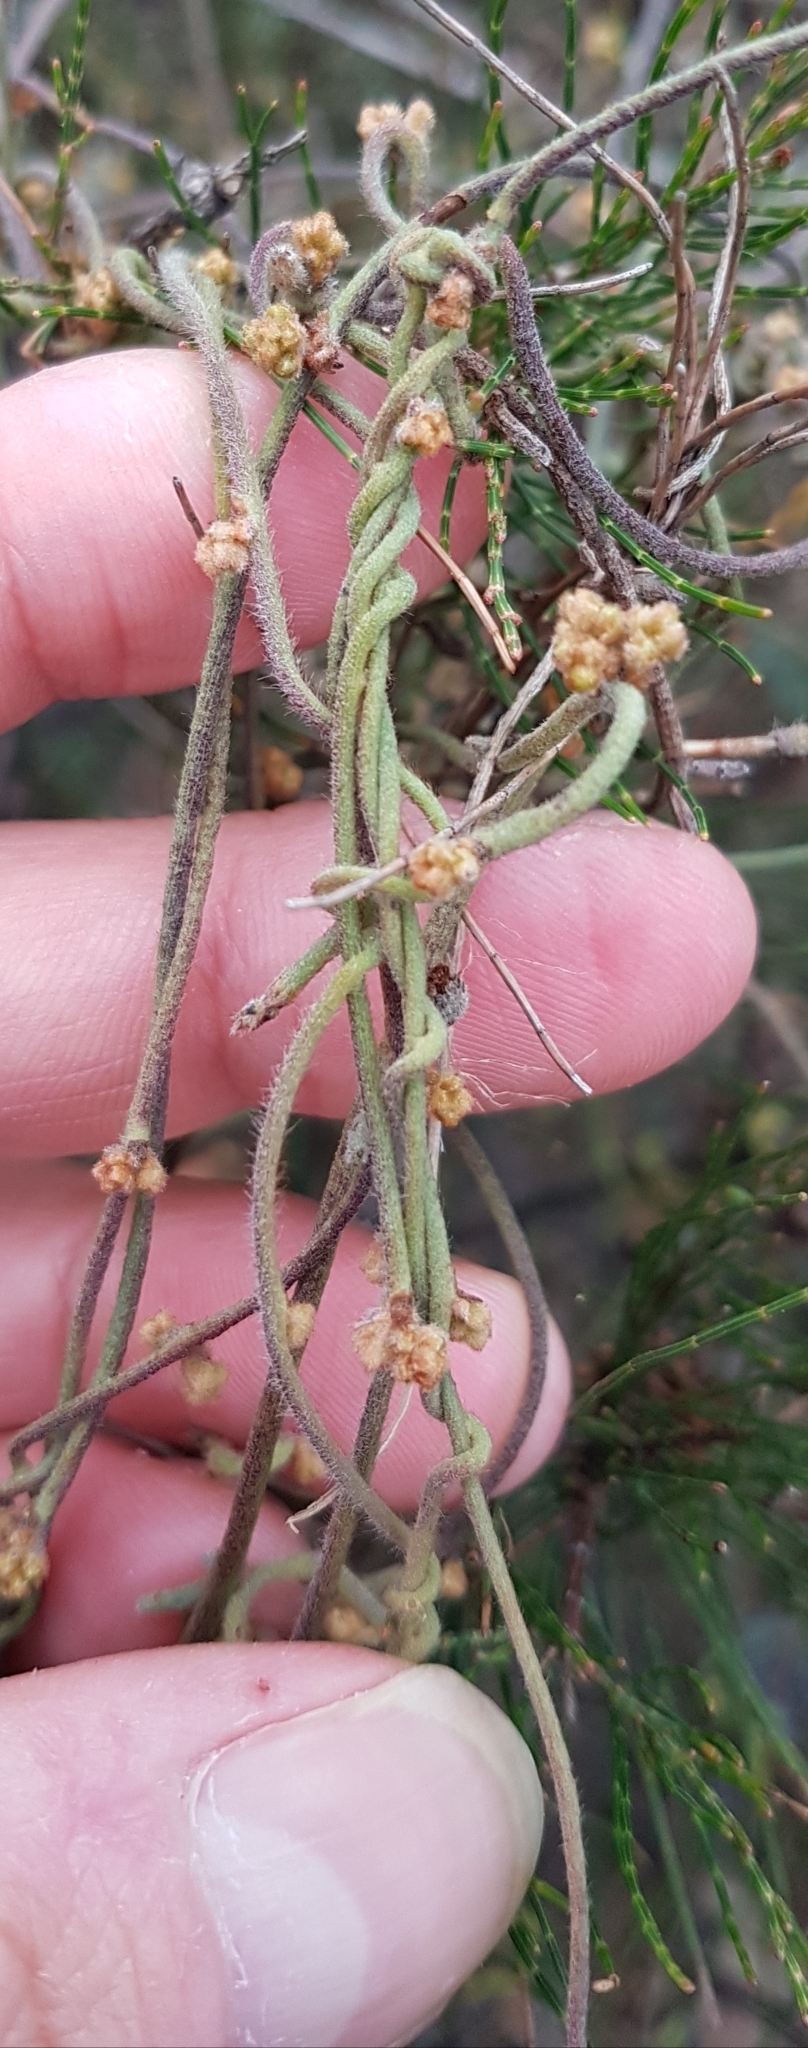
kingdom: Plantae
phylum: Tracheophyta
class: Magnoliopsida
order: Laurales
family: Lauraceae
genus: Cassytha
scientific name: Cassytha pubescens
